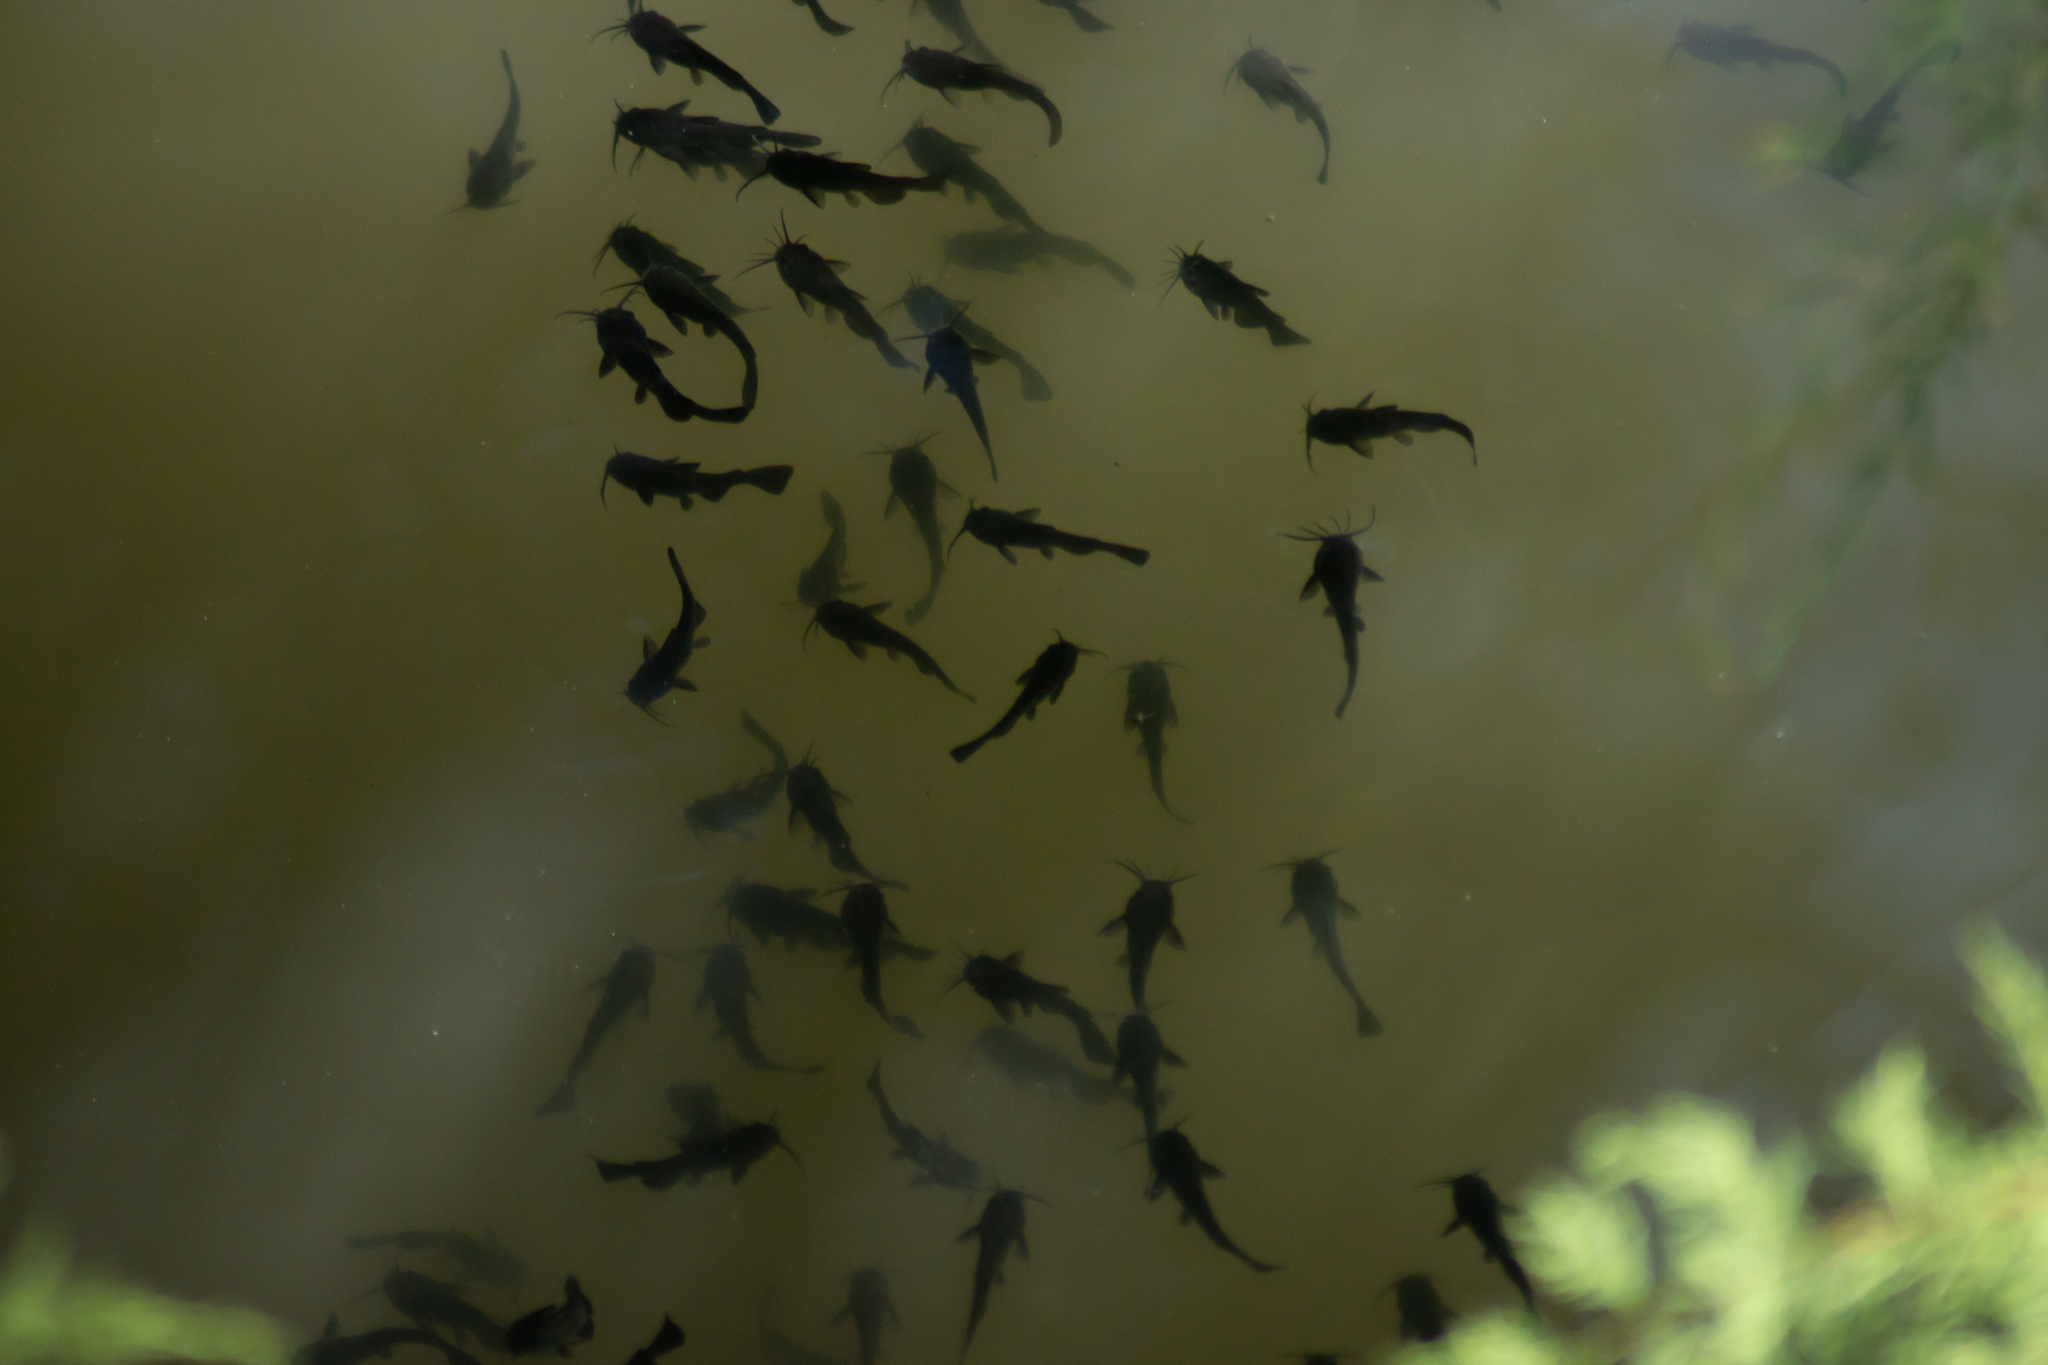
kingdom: Animalia
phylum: Chordata
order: Siluriformes
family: Ictaluridae
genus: Ameiurus
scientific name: Ameiurus melas
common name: Black bullhead
